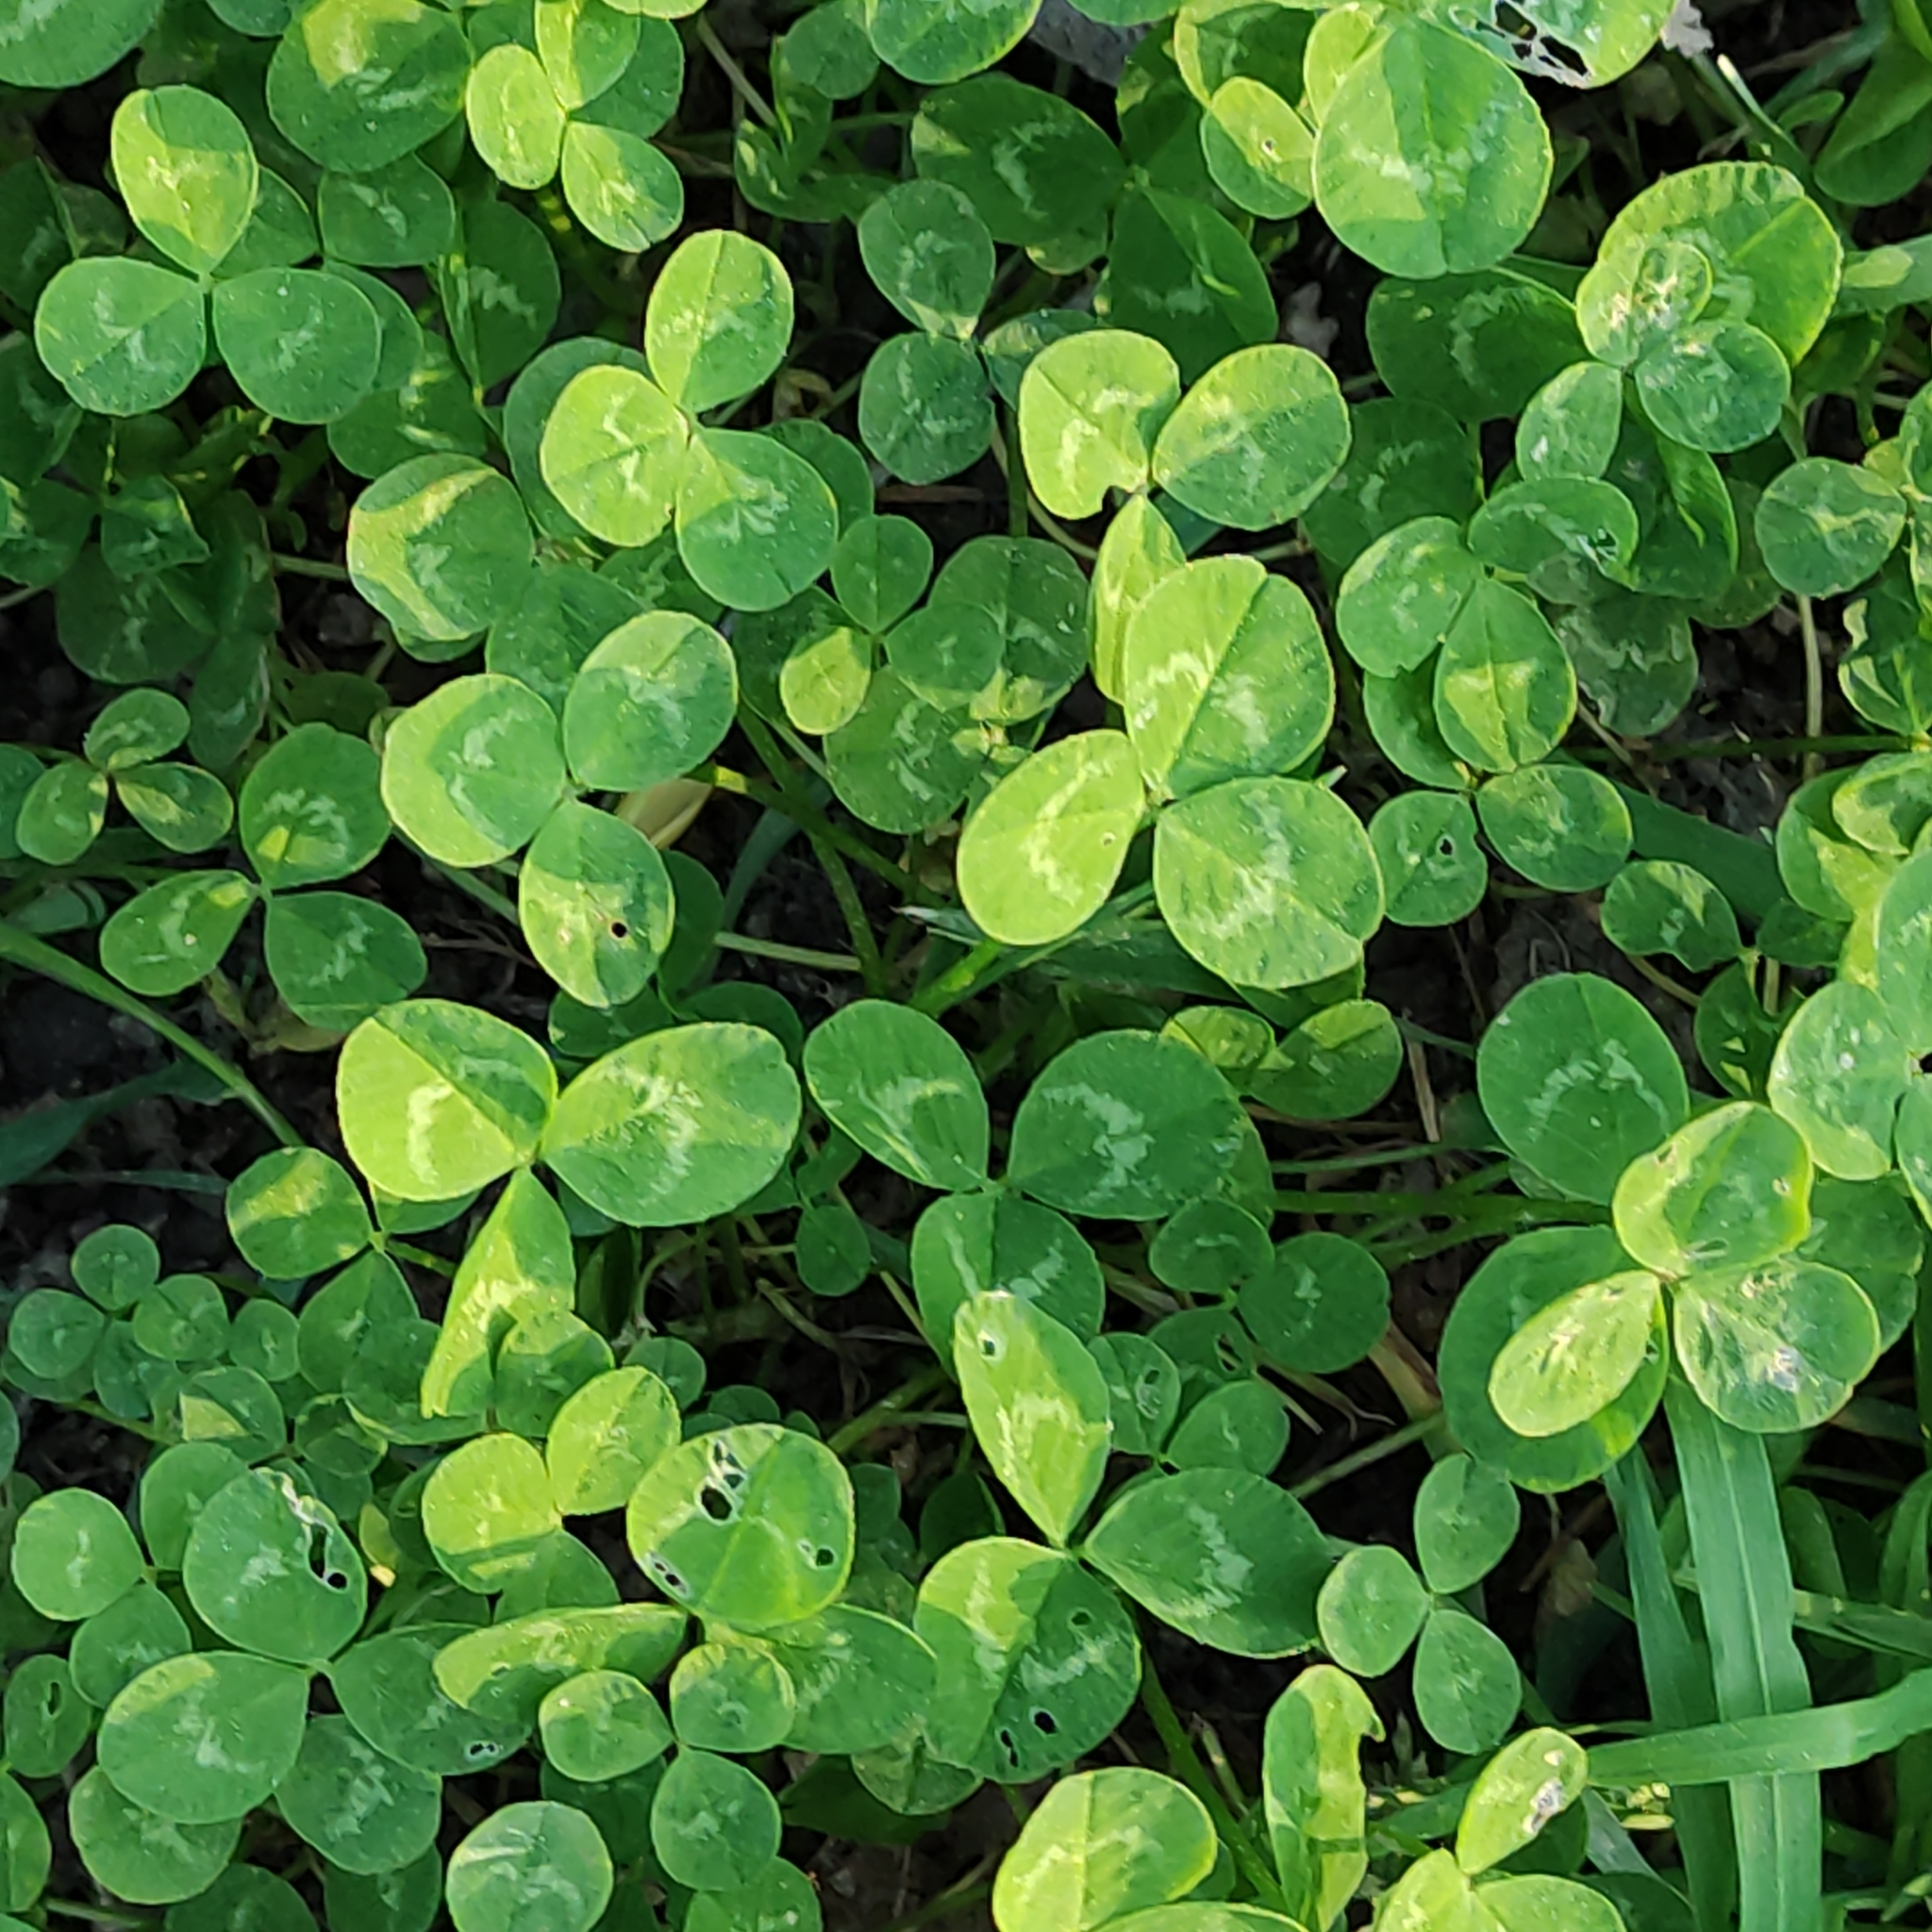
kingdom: Plantae
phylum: Tracheophyta
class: Magnoliopsida
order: Fabales
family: Fabaceae
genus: Trifolium
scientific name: Trifolium repens
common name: White clover
